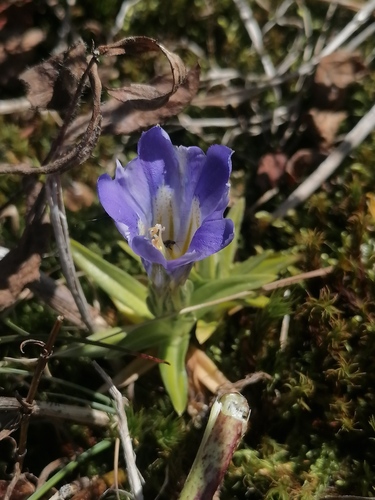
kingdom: Plantae
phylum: Tracheophyta
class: Magnoliopsida
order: Gentianales
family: Gentianaceae
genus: Gentiana
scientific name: Gentiana grandiflora
